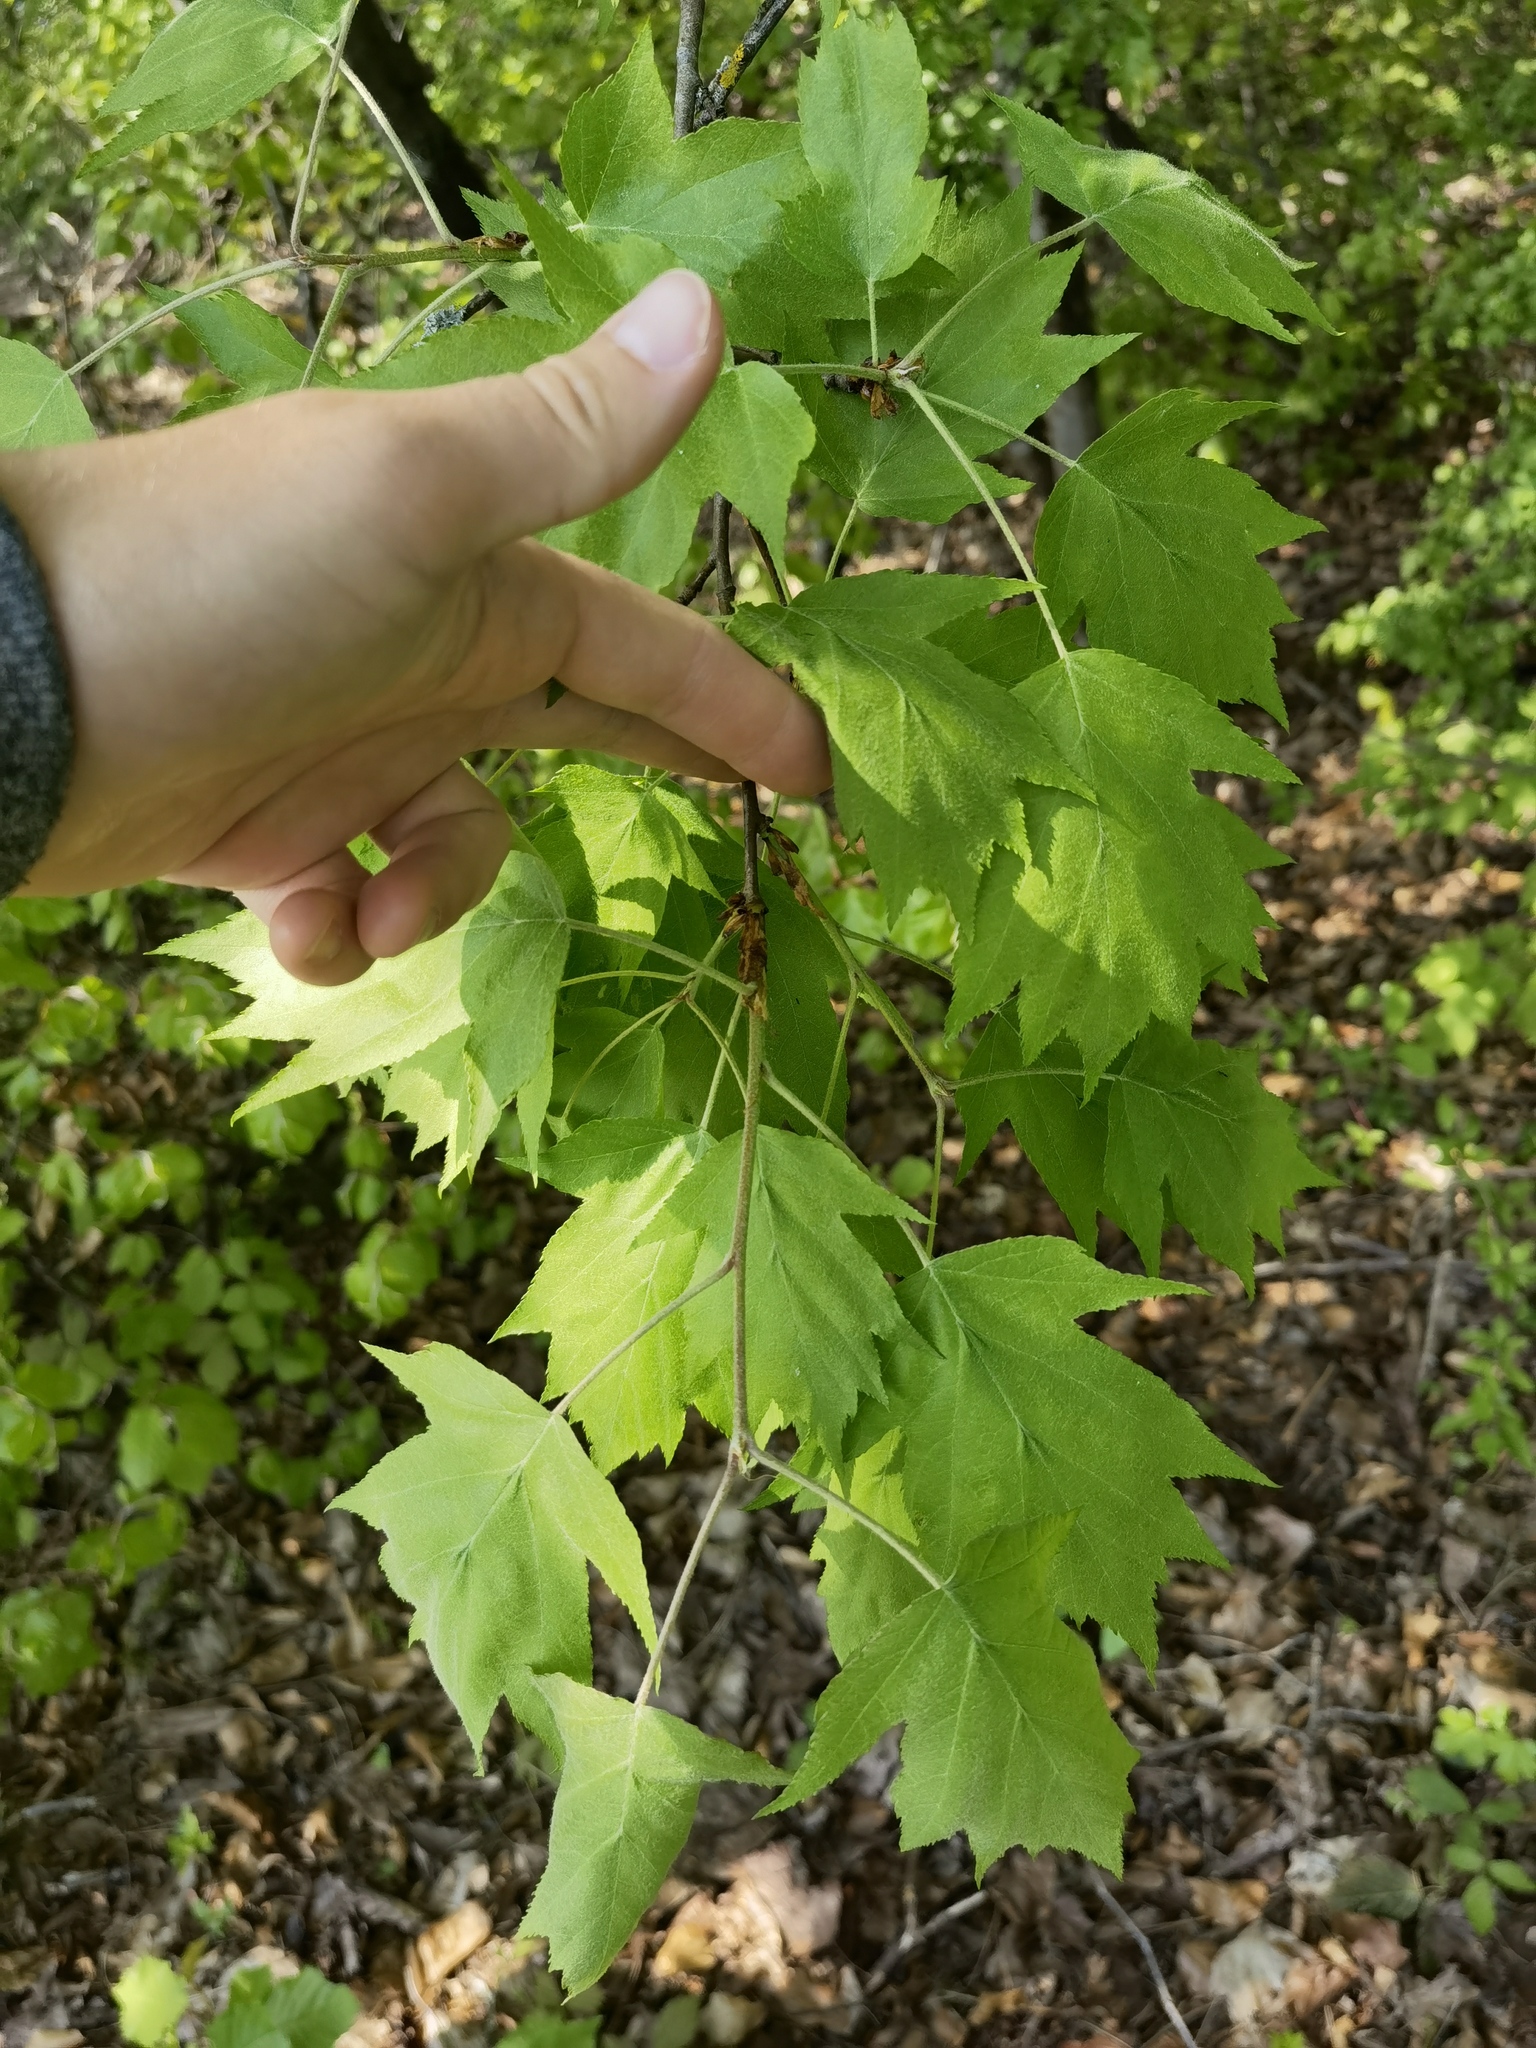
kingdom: Plantae
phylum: Tracheophyta
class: Magnoliopsida
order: Rosales
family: Rosaceae
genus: Torminalis
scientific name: Torminalis glaberrima
